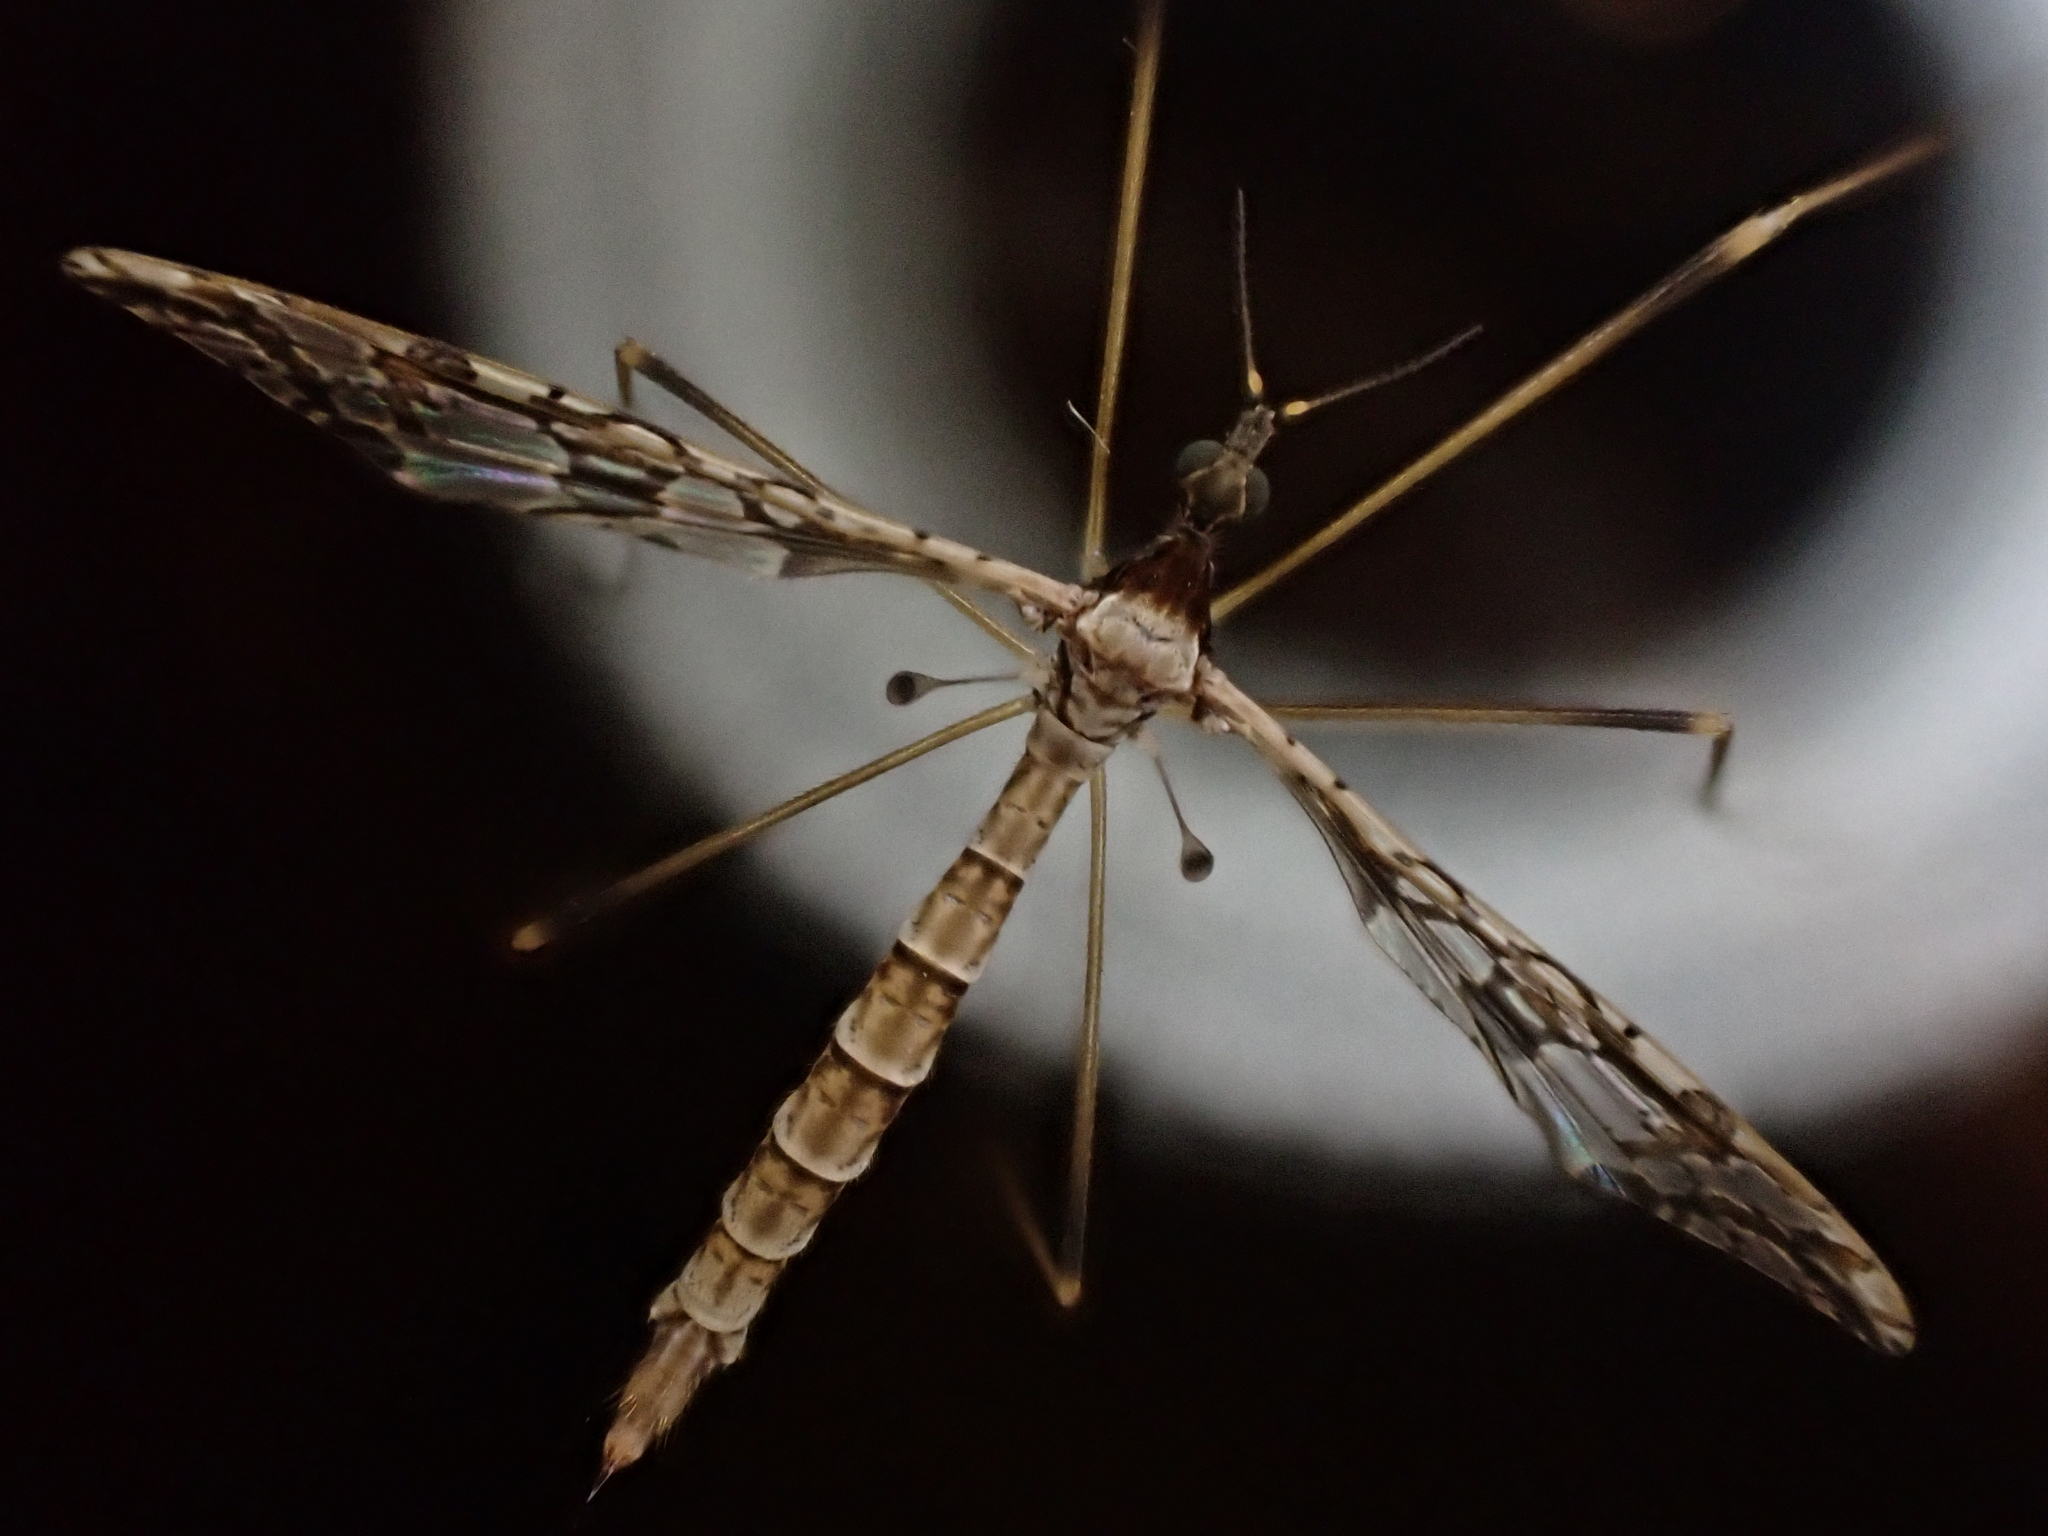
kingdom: Animalia
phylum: Arthropoda
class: Insecta
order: Diptera
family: Limoniidae
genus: Epiphragma
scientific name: Epiphragma solatrix
